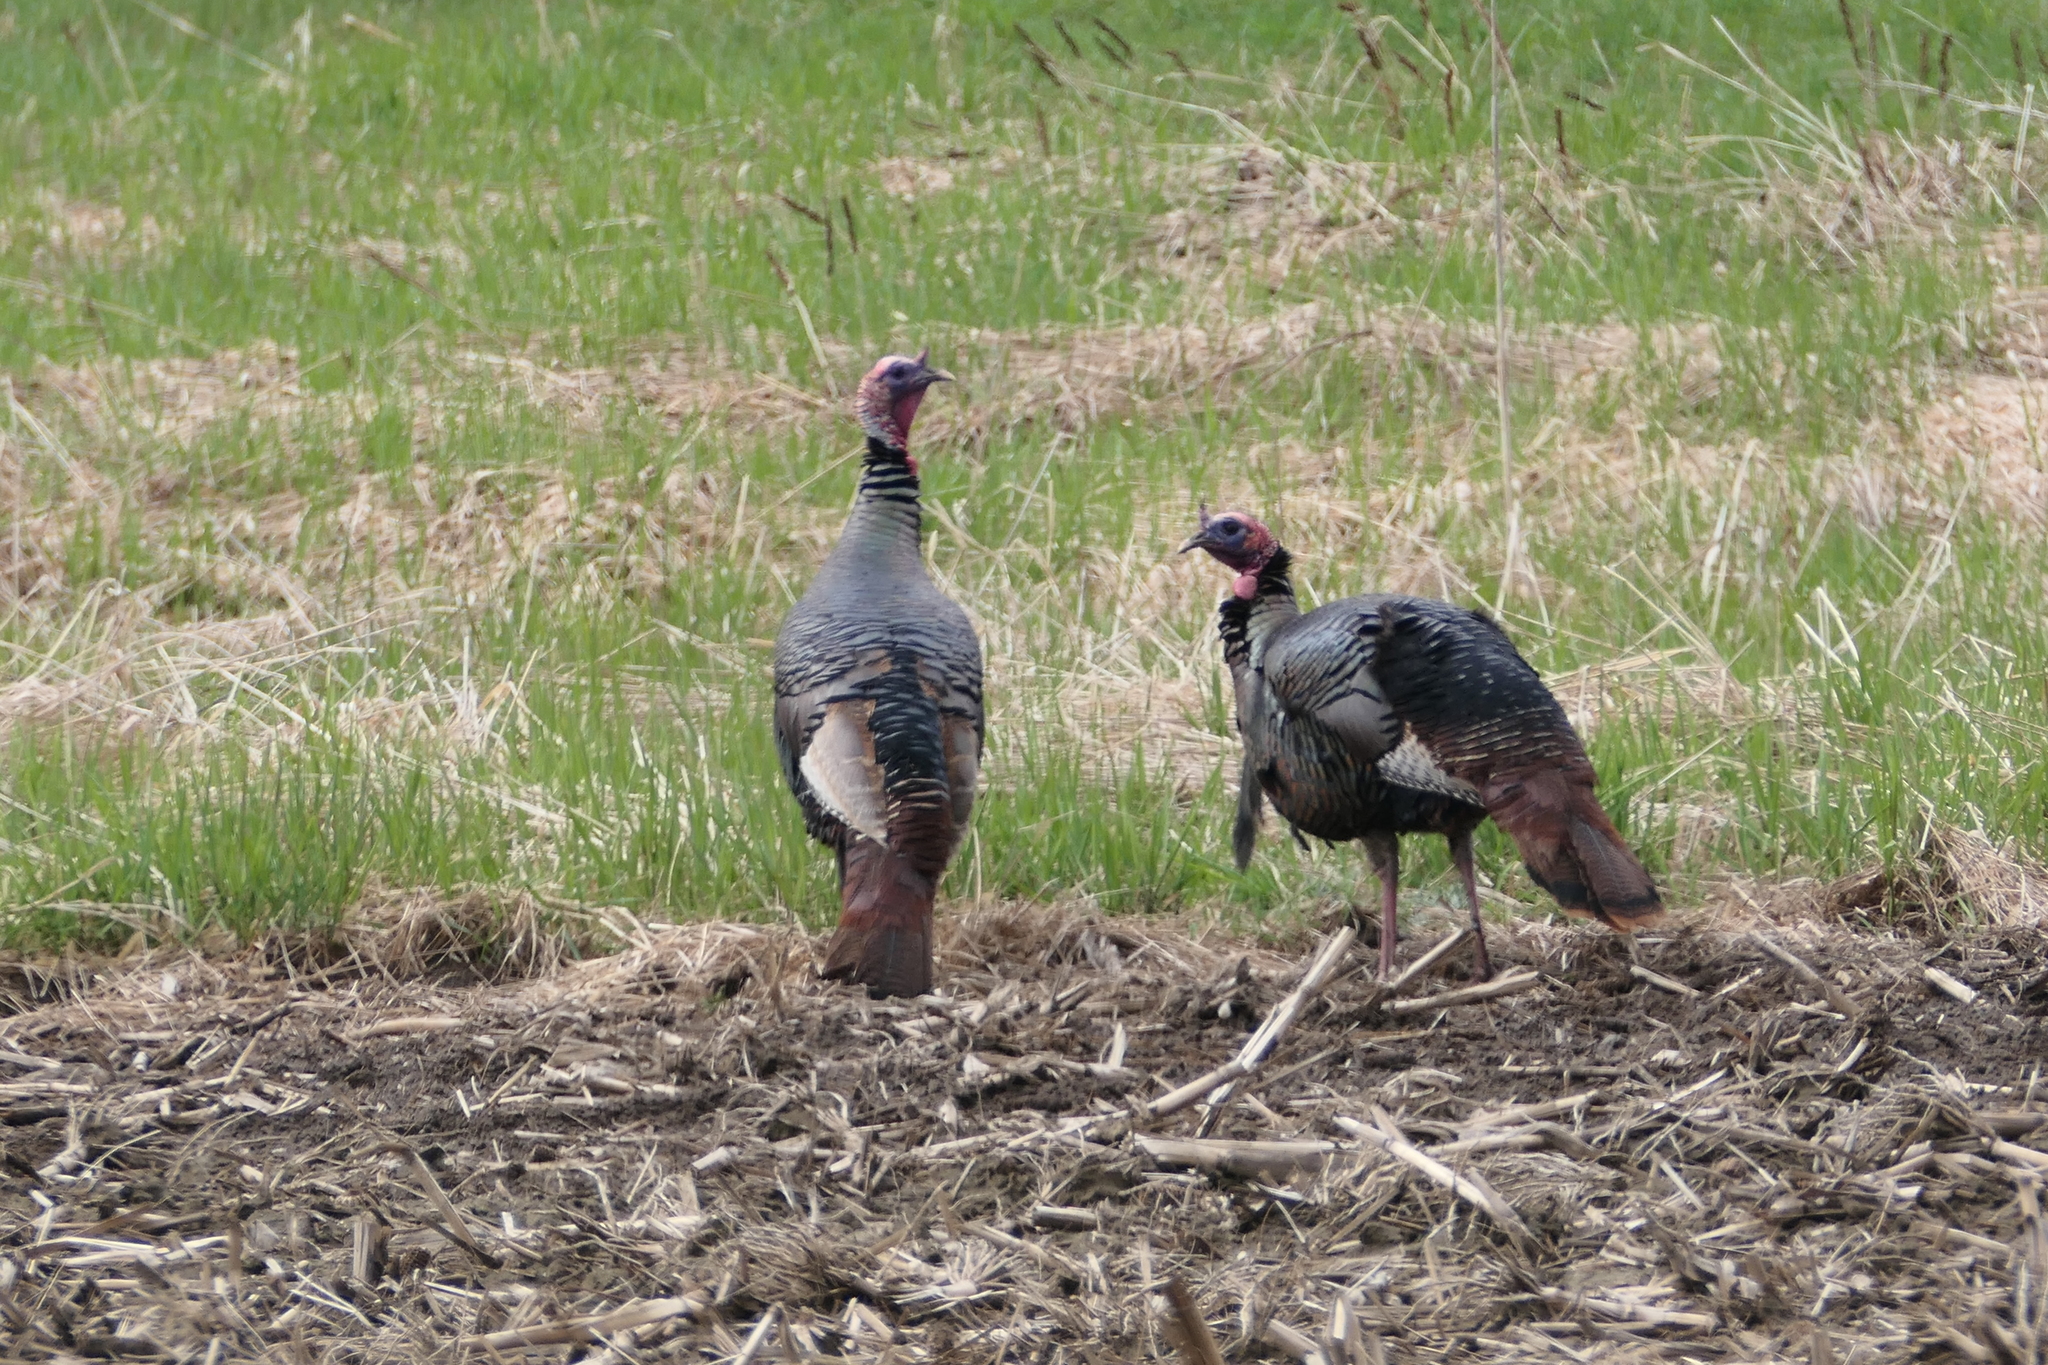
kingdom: Animalia
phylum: Chordata
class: Aves
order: Galliformes
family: Phasianidae
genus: Meleagris
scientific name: Meleagris gallopavo
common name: Wild turkey
